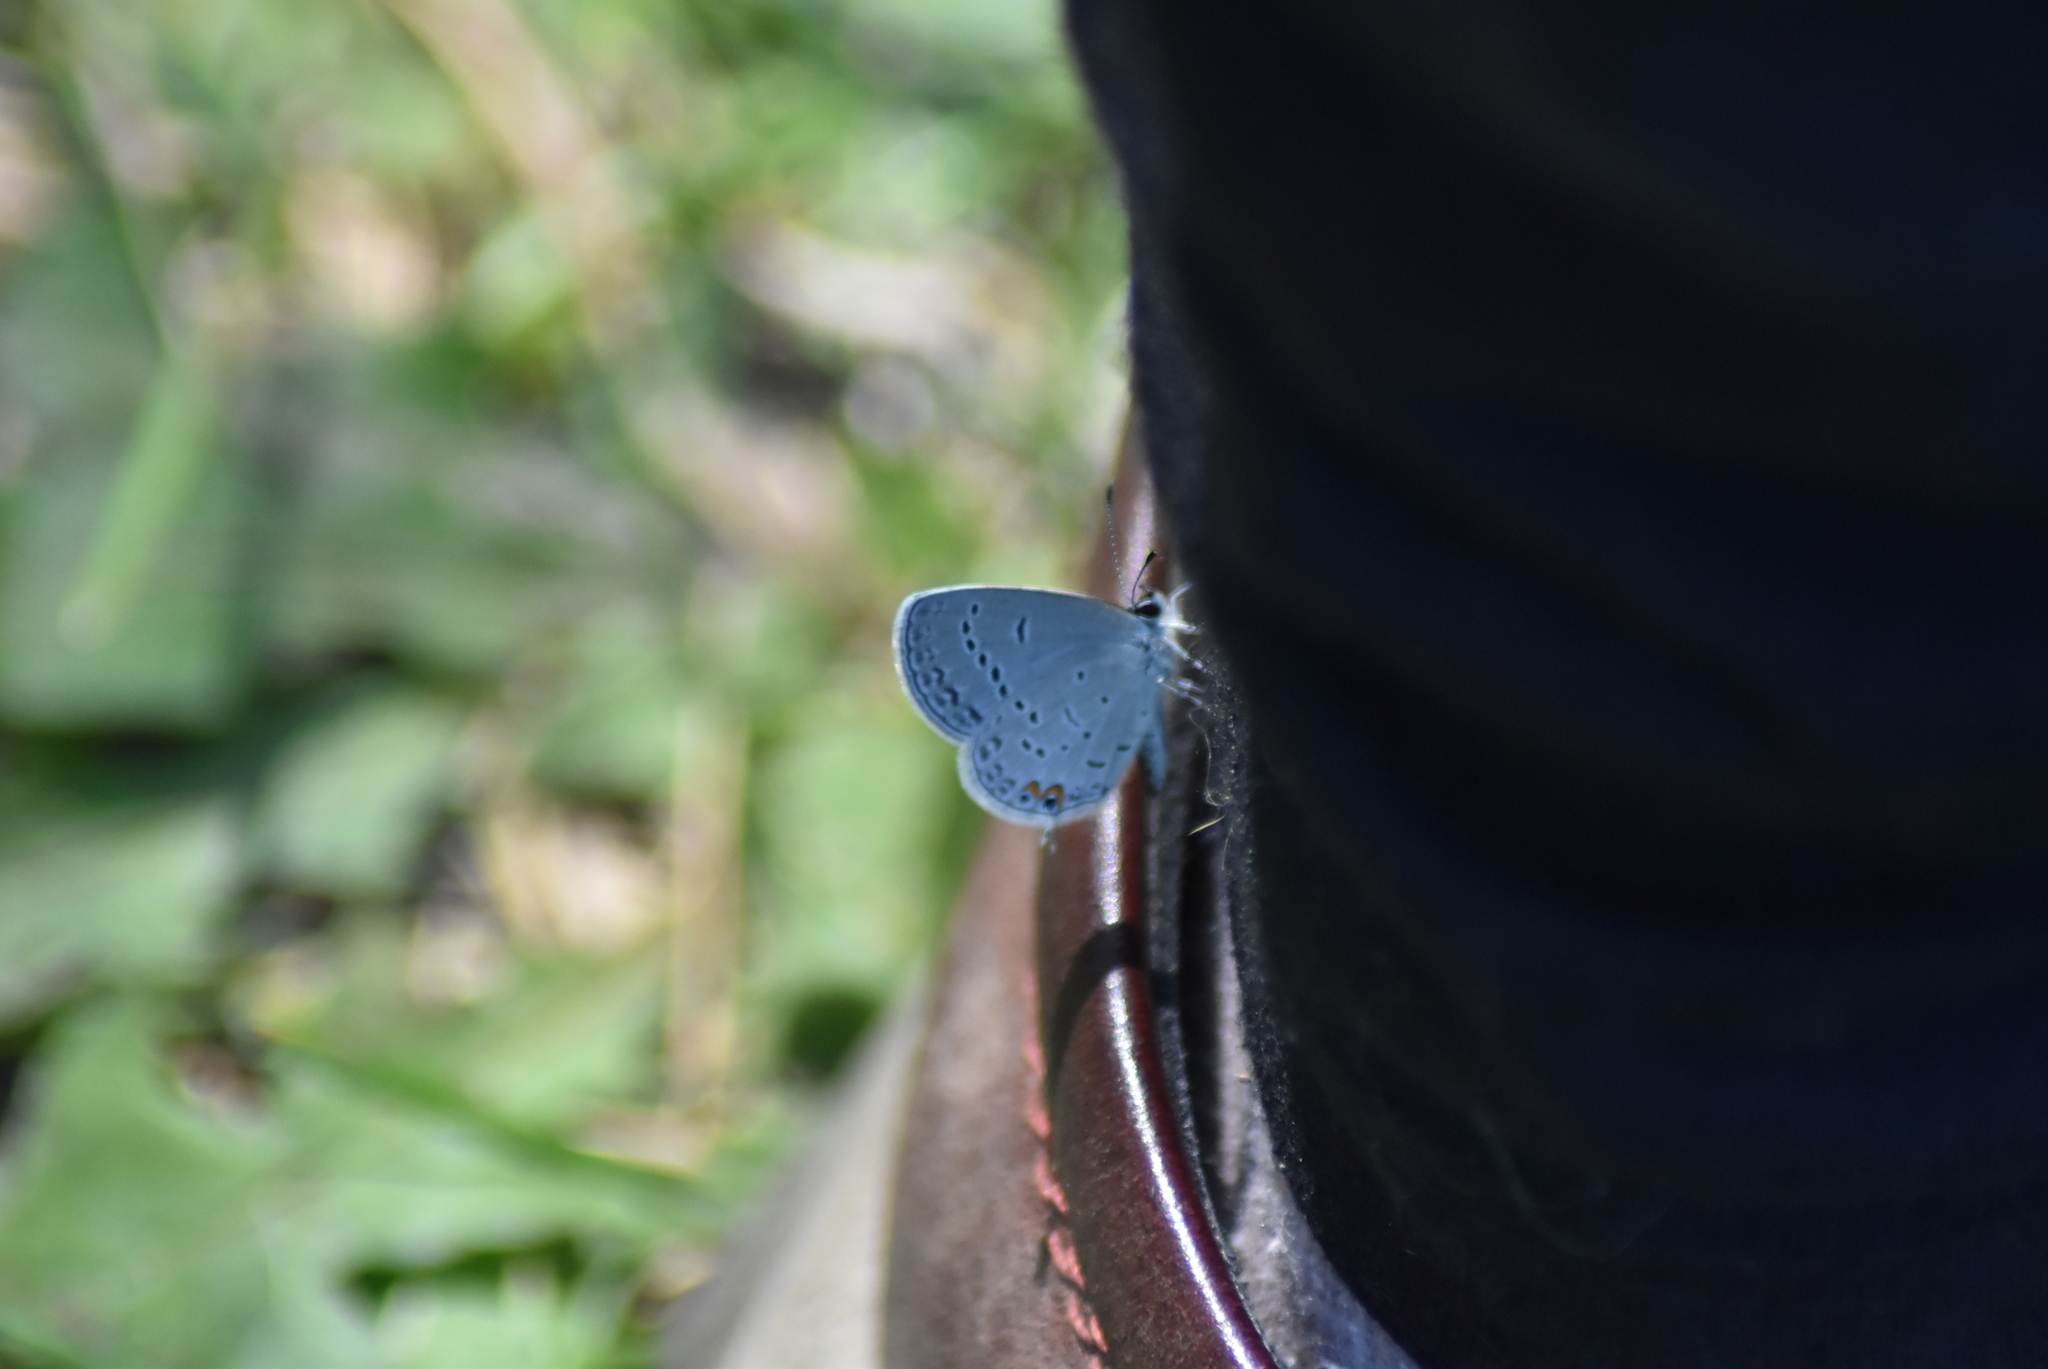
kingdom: Animalia
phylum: Arthropoda
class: Insecta
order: Lepidoptera
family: Lycaenidae
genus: Elkalyce
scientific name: Elkalyce comyntas
